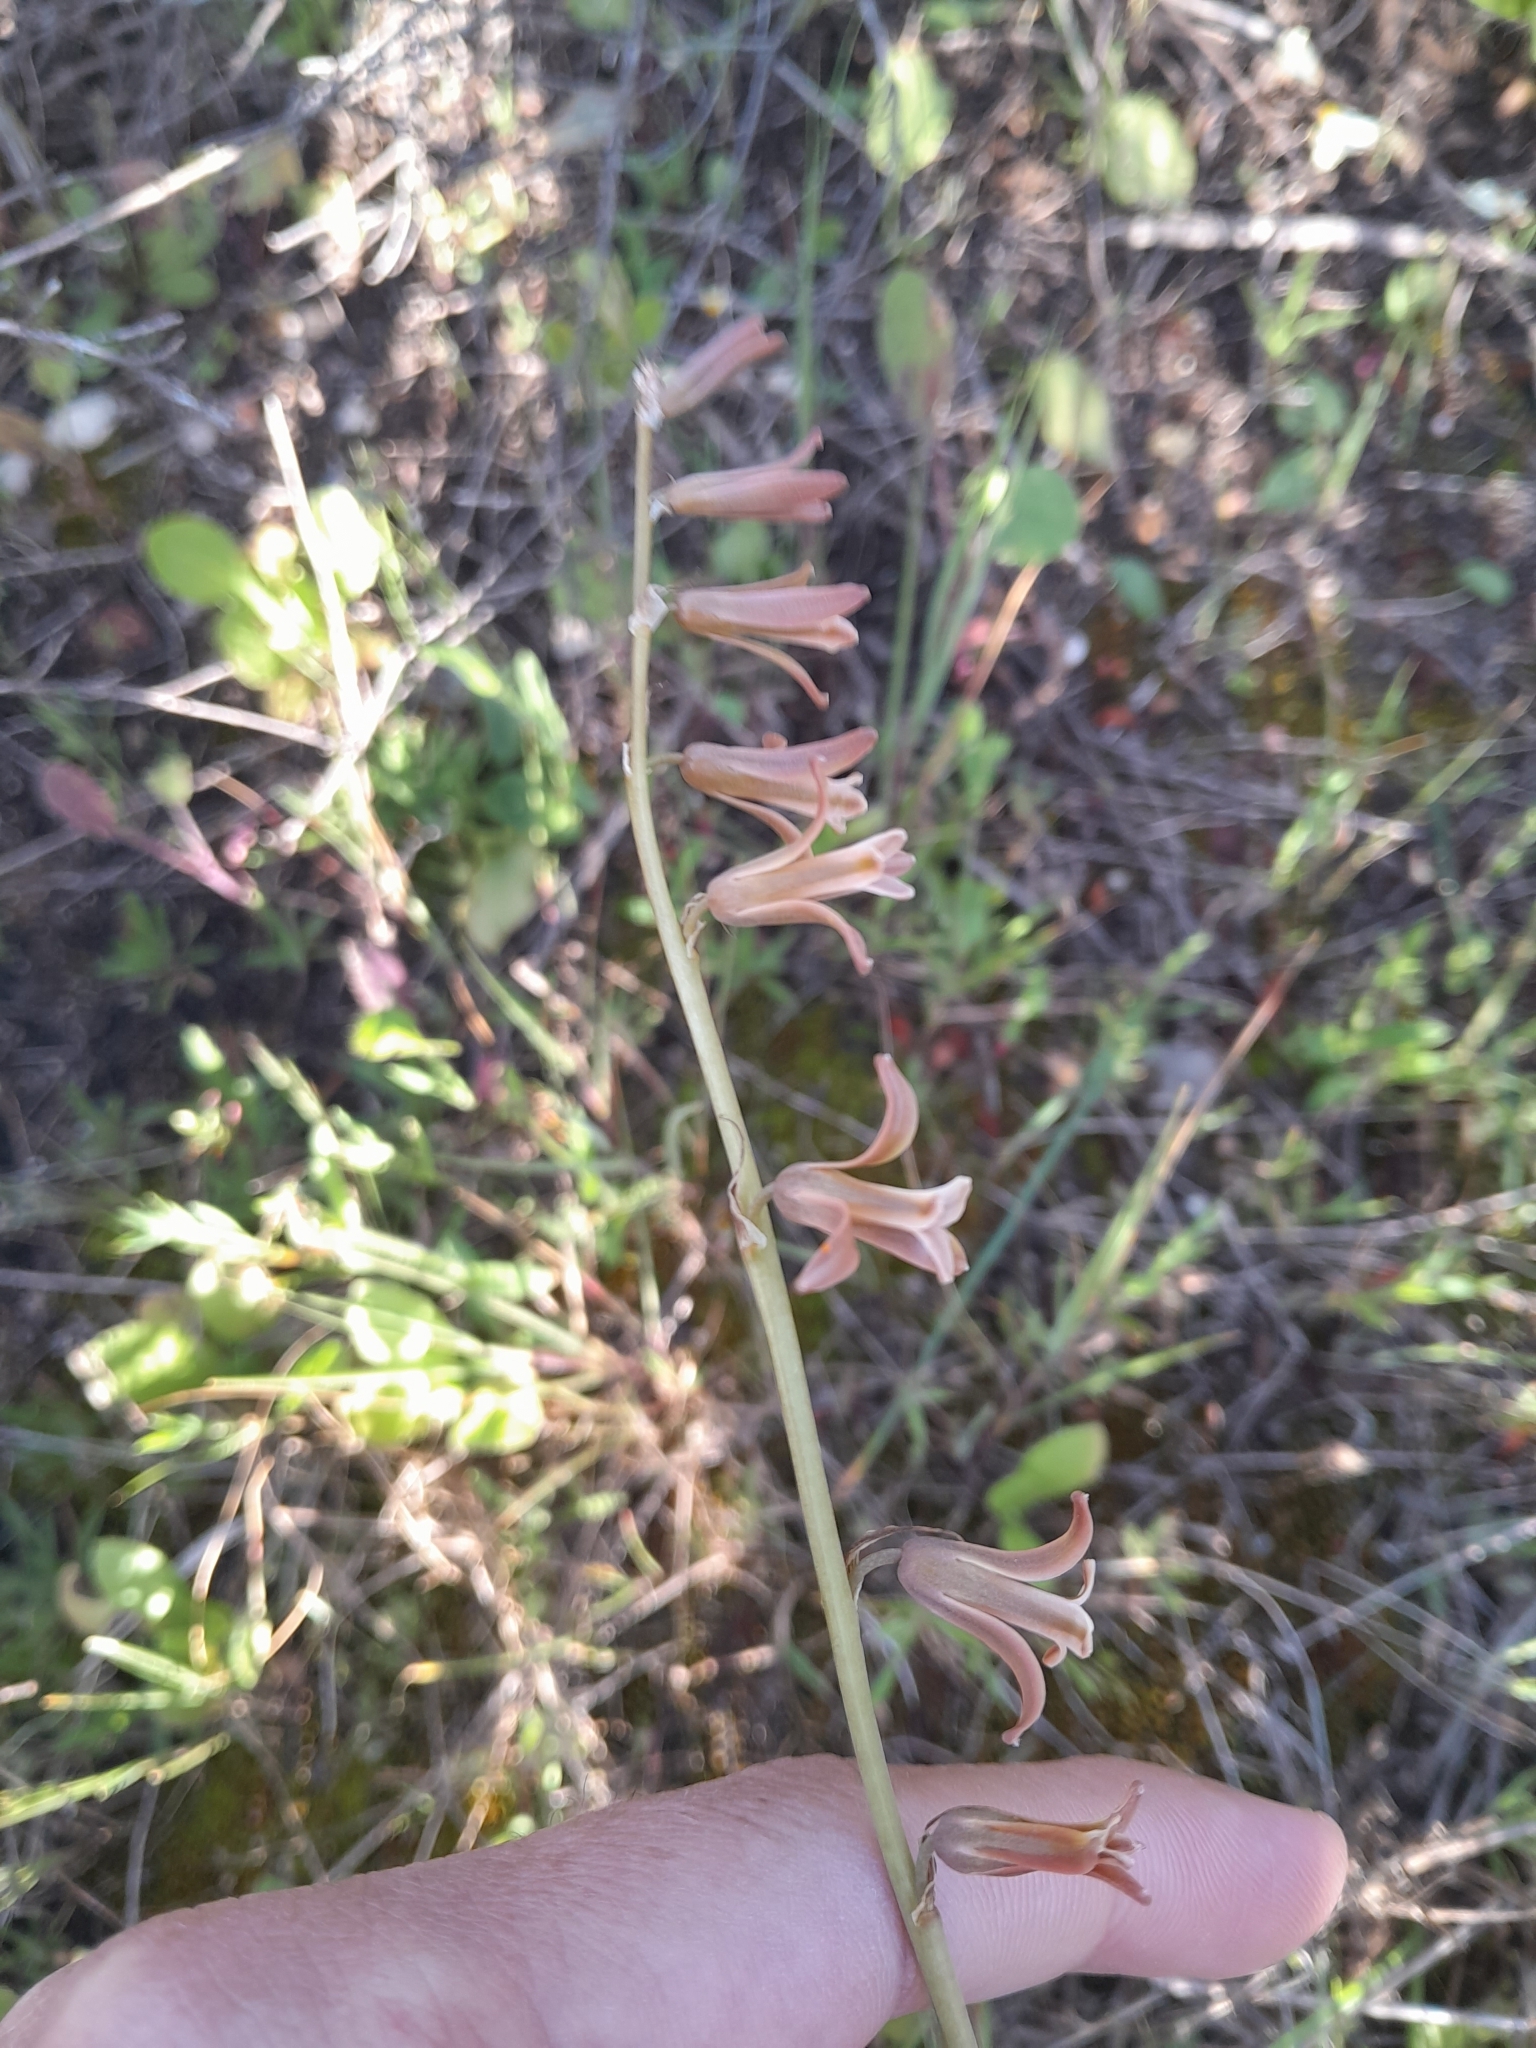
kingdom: Plantae
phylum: Tracheophyta
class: Liliopsida
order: Asparagales
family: Asparagaceae
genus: Dipcadi
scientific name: Dipcadi serotinum
